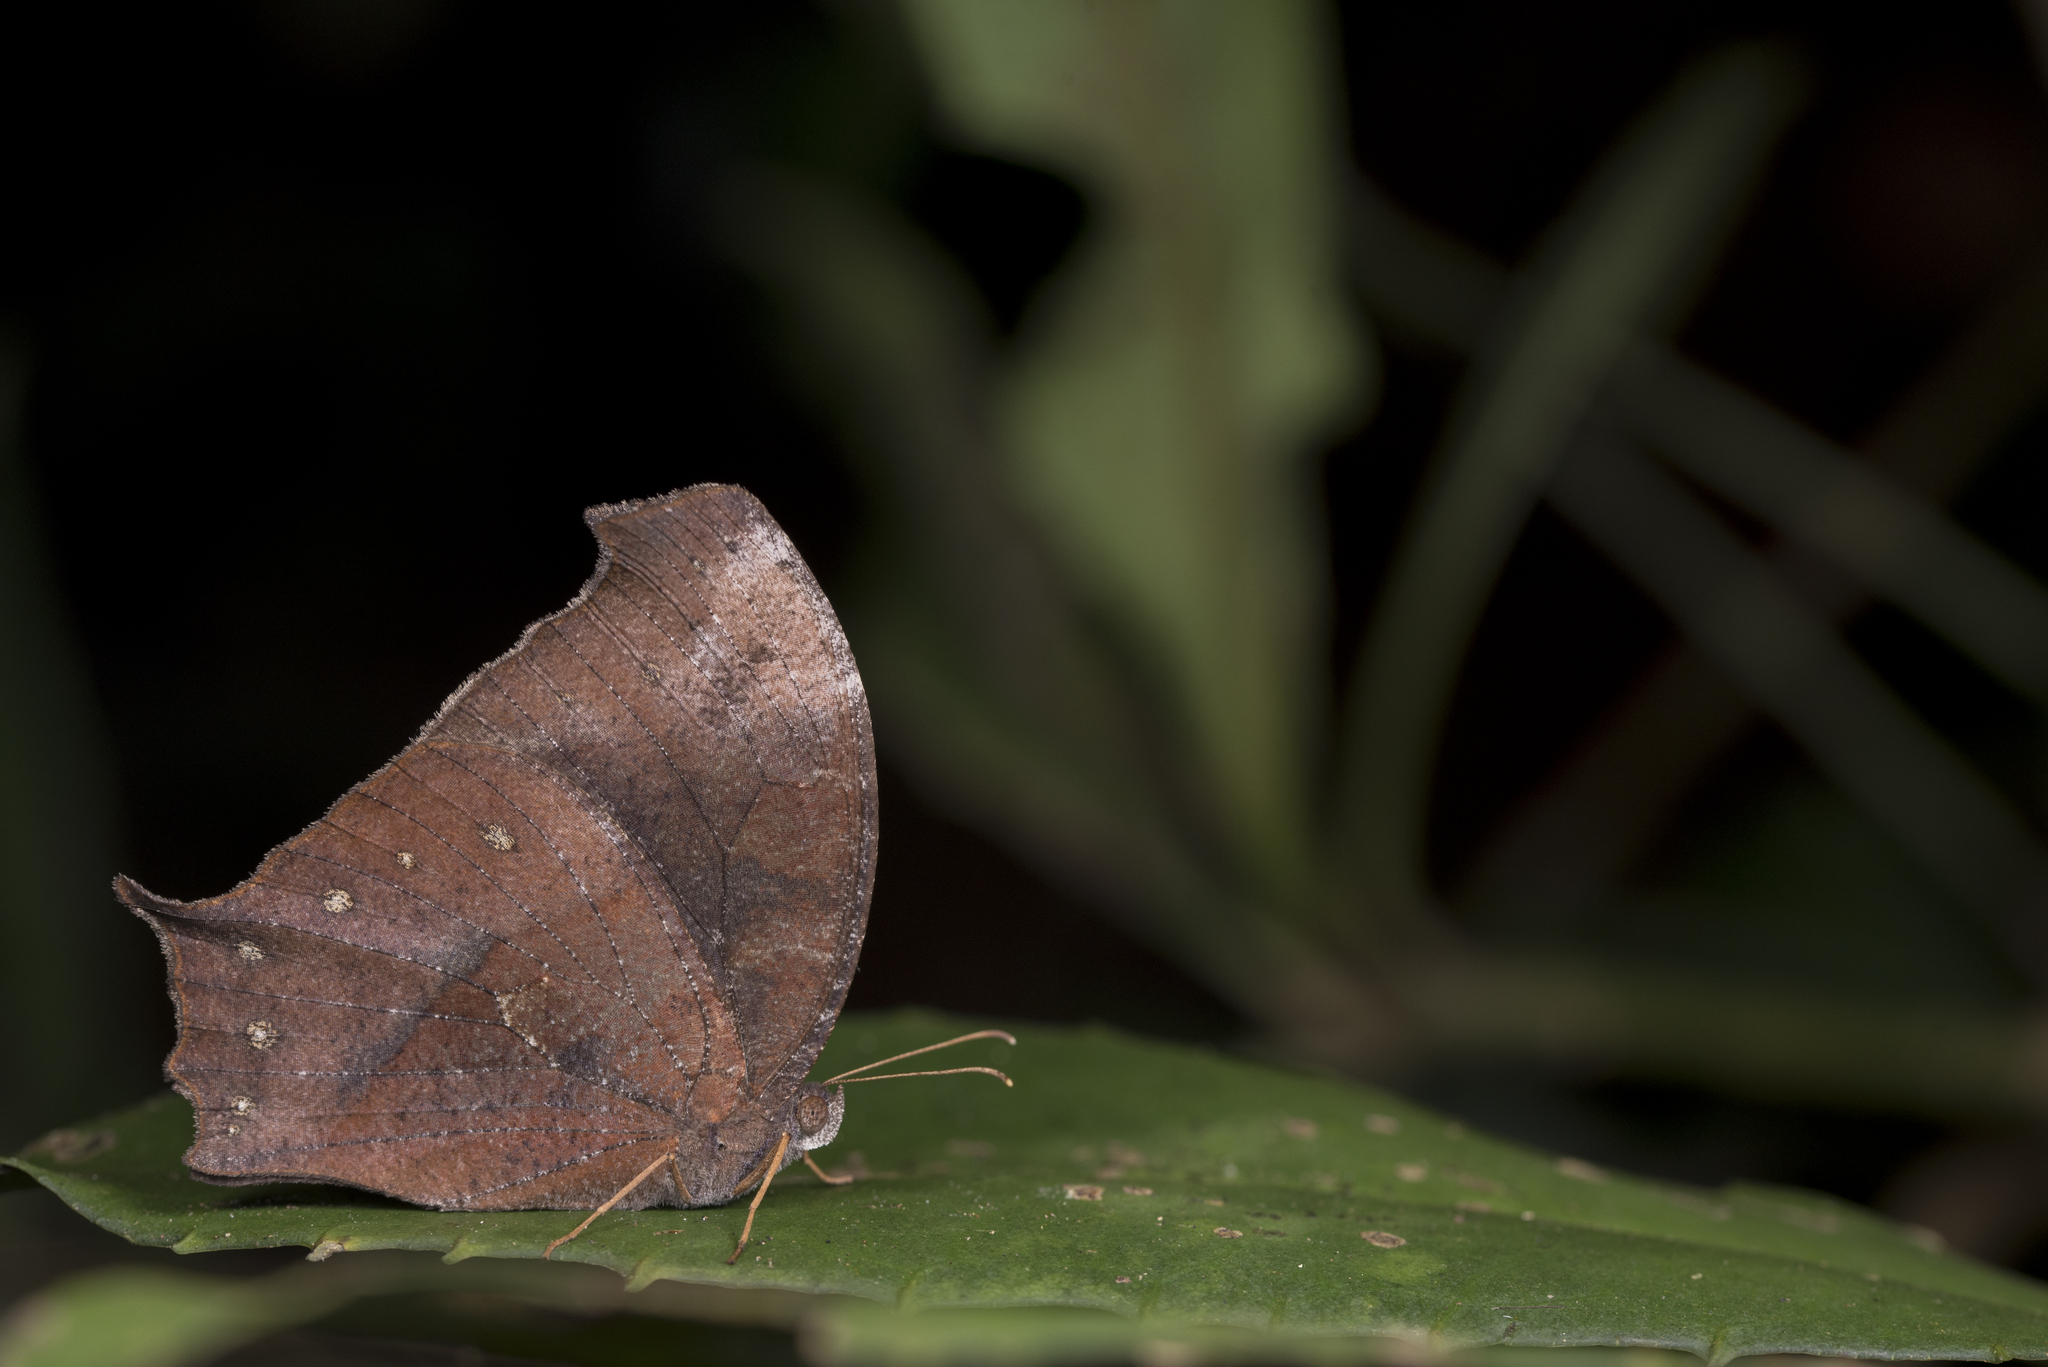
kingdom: Animalia
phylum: Arthropoda
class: Insecta
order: Lepidoptera
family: Nymphalidae
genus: Melanitis
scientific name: Melanitis phedima
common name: Dark evening brown
